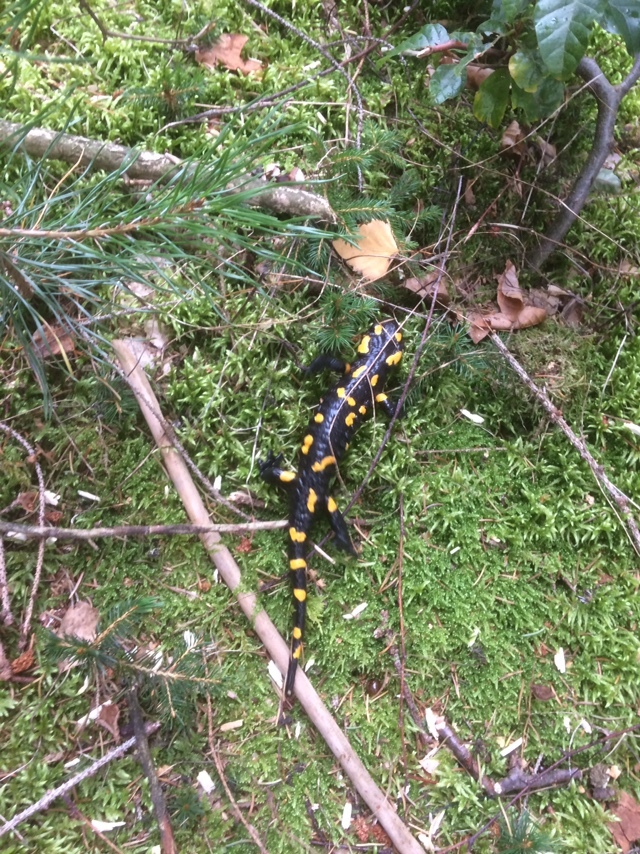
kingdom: Animalia
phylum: Chordata
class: Amphibia
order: Caudata
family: Salamandridae
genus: Salamandra
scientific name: Salamandra salamandra
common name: Fire salamander
